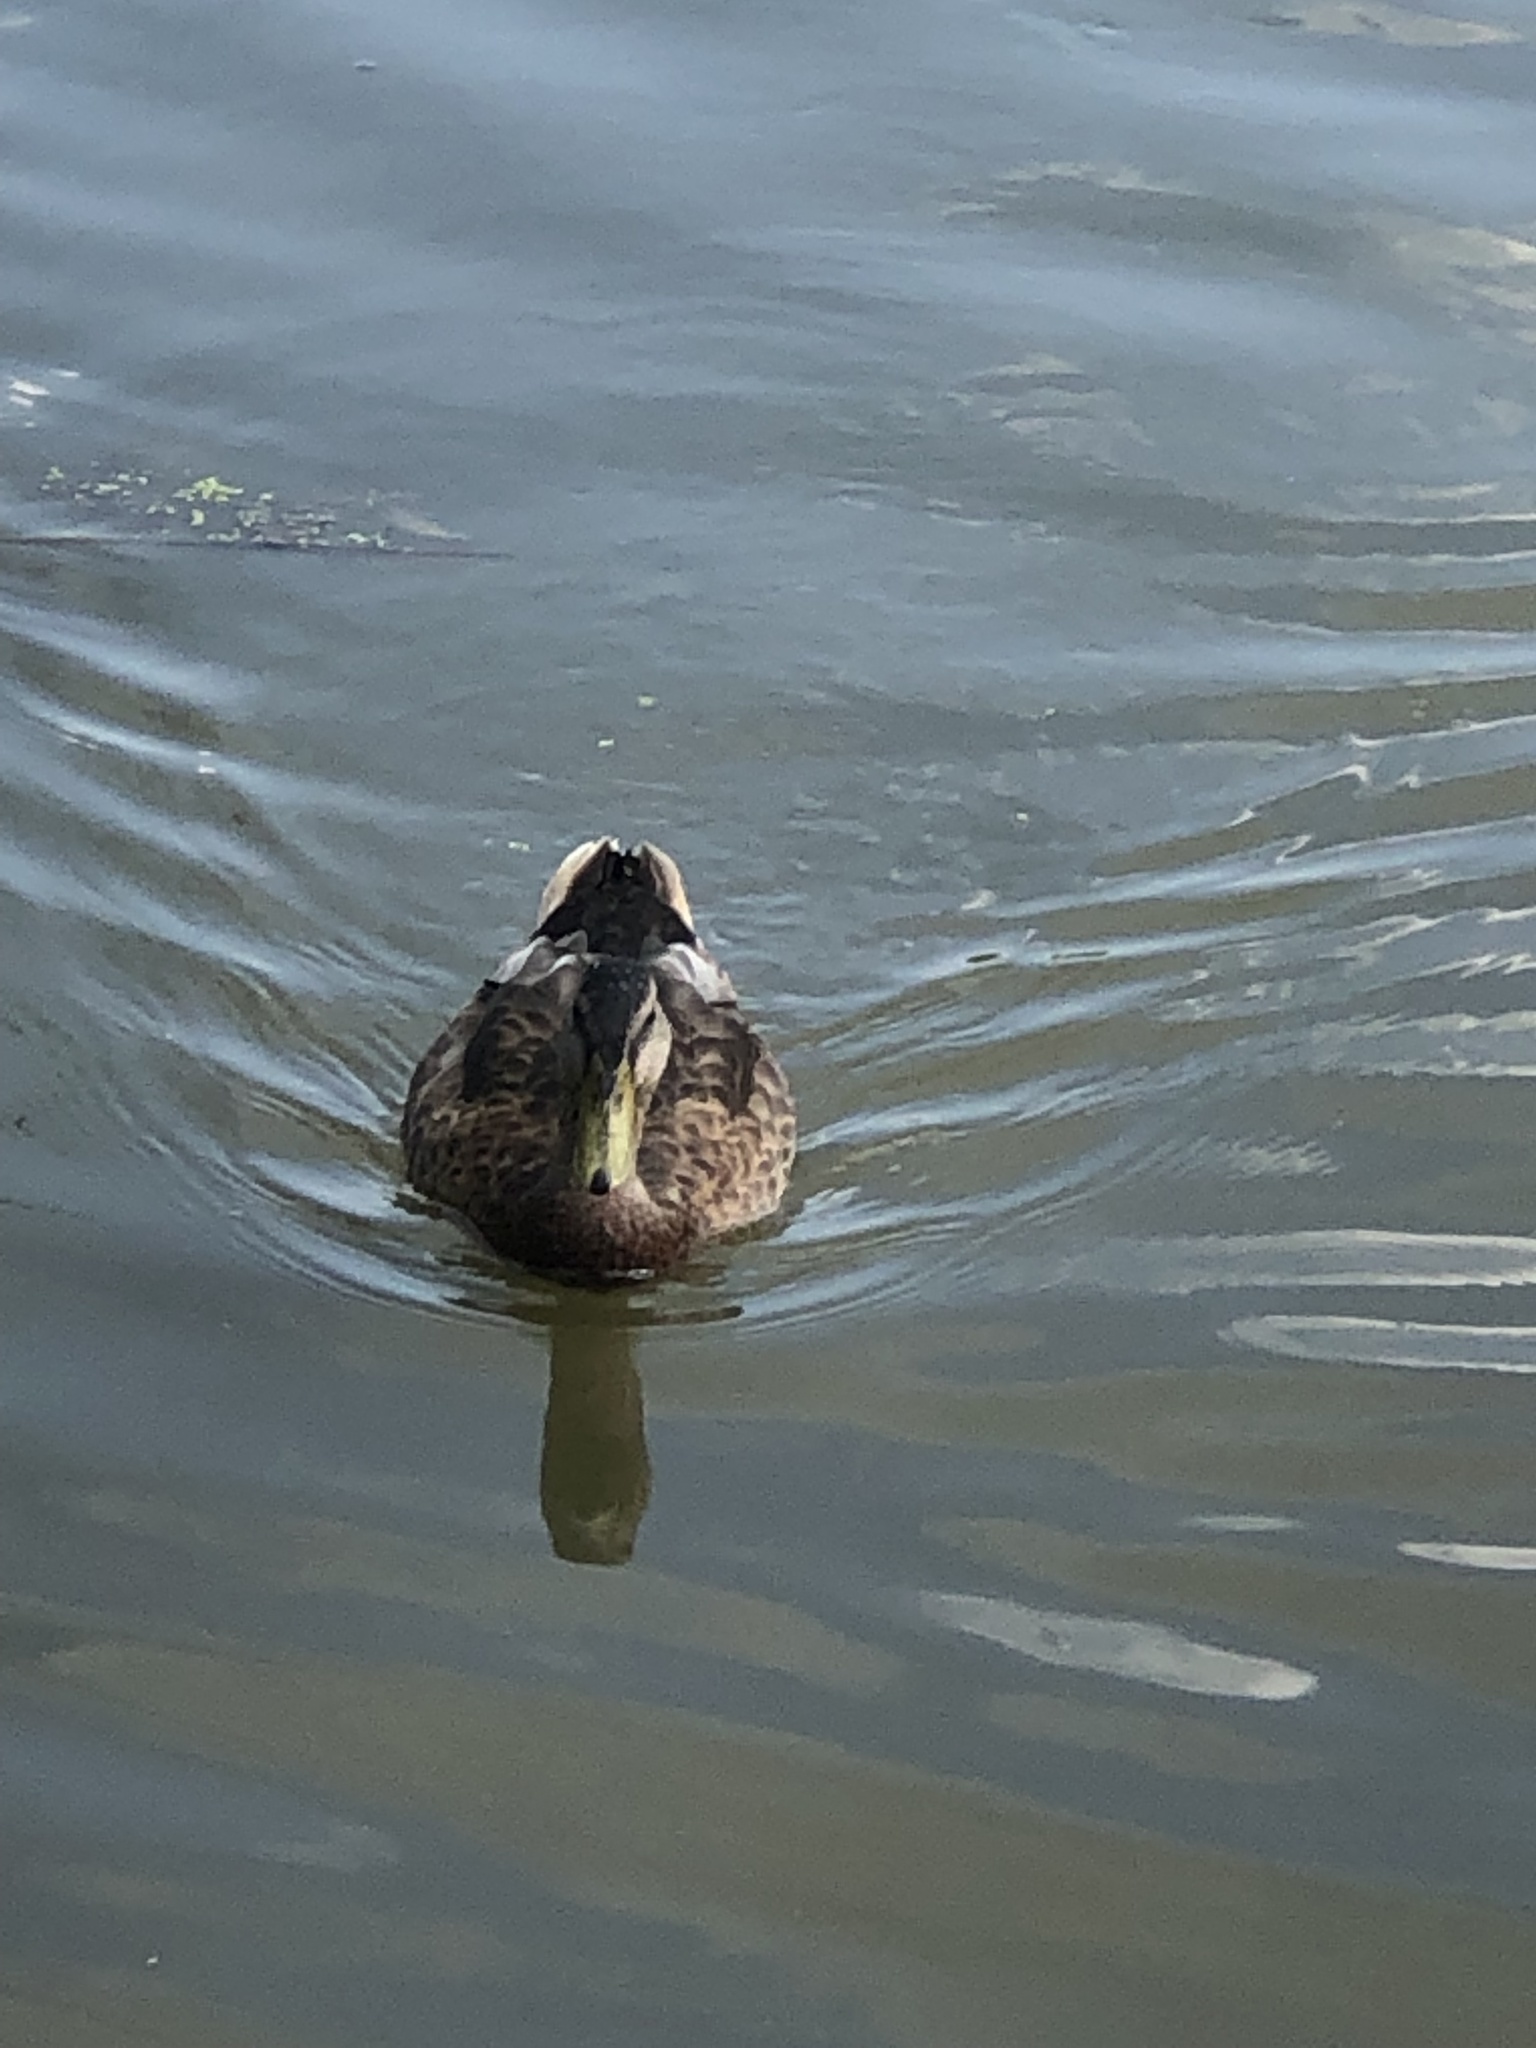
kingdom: Animalia
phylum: Chordata
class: Aves
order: Anseriformes
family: Anatidae
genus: Anas
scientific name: Anas platyrhynchos
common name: Mallard
